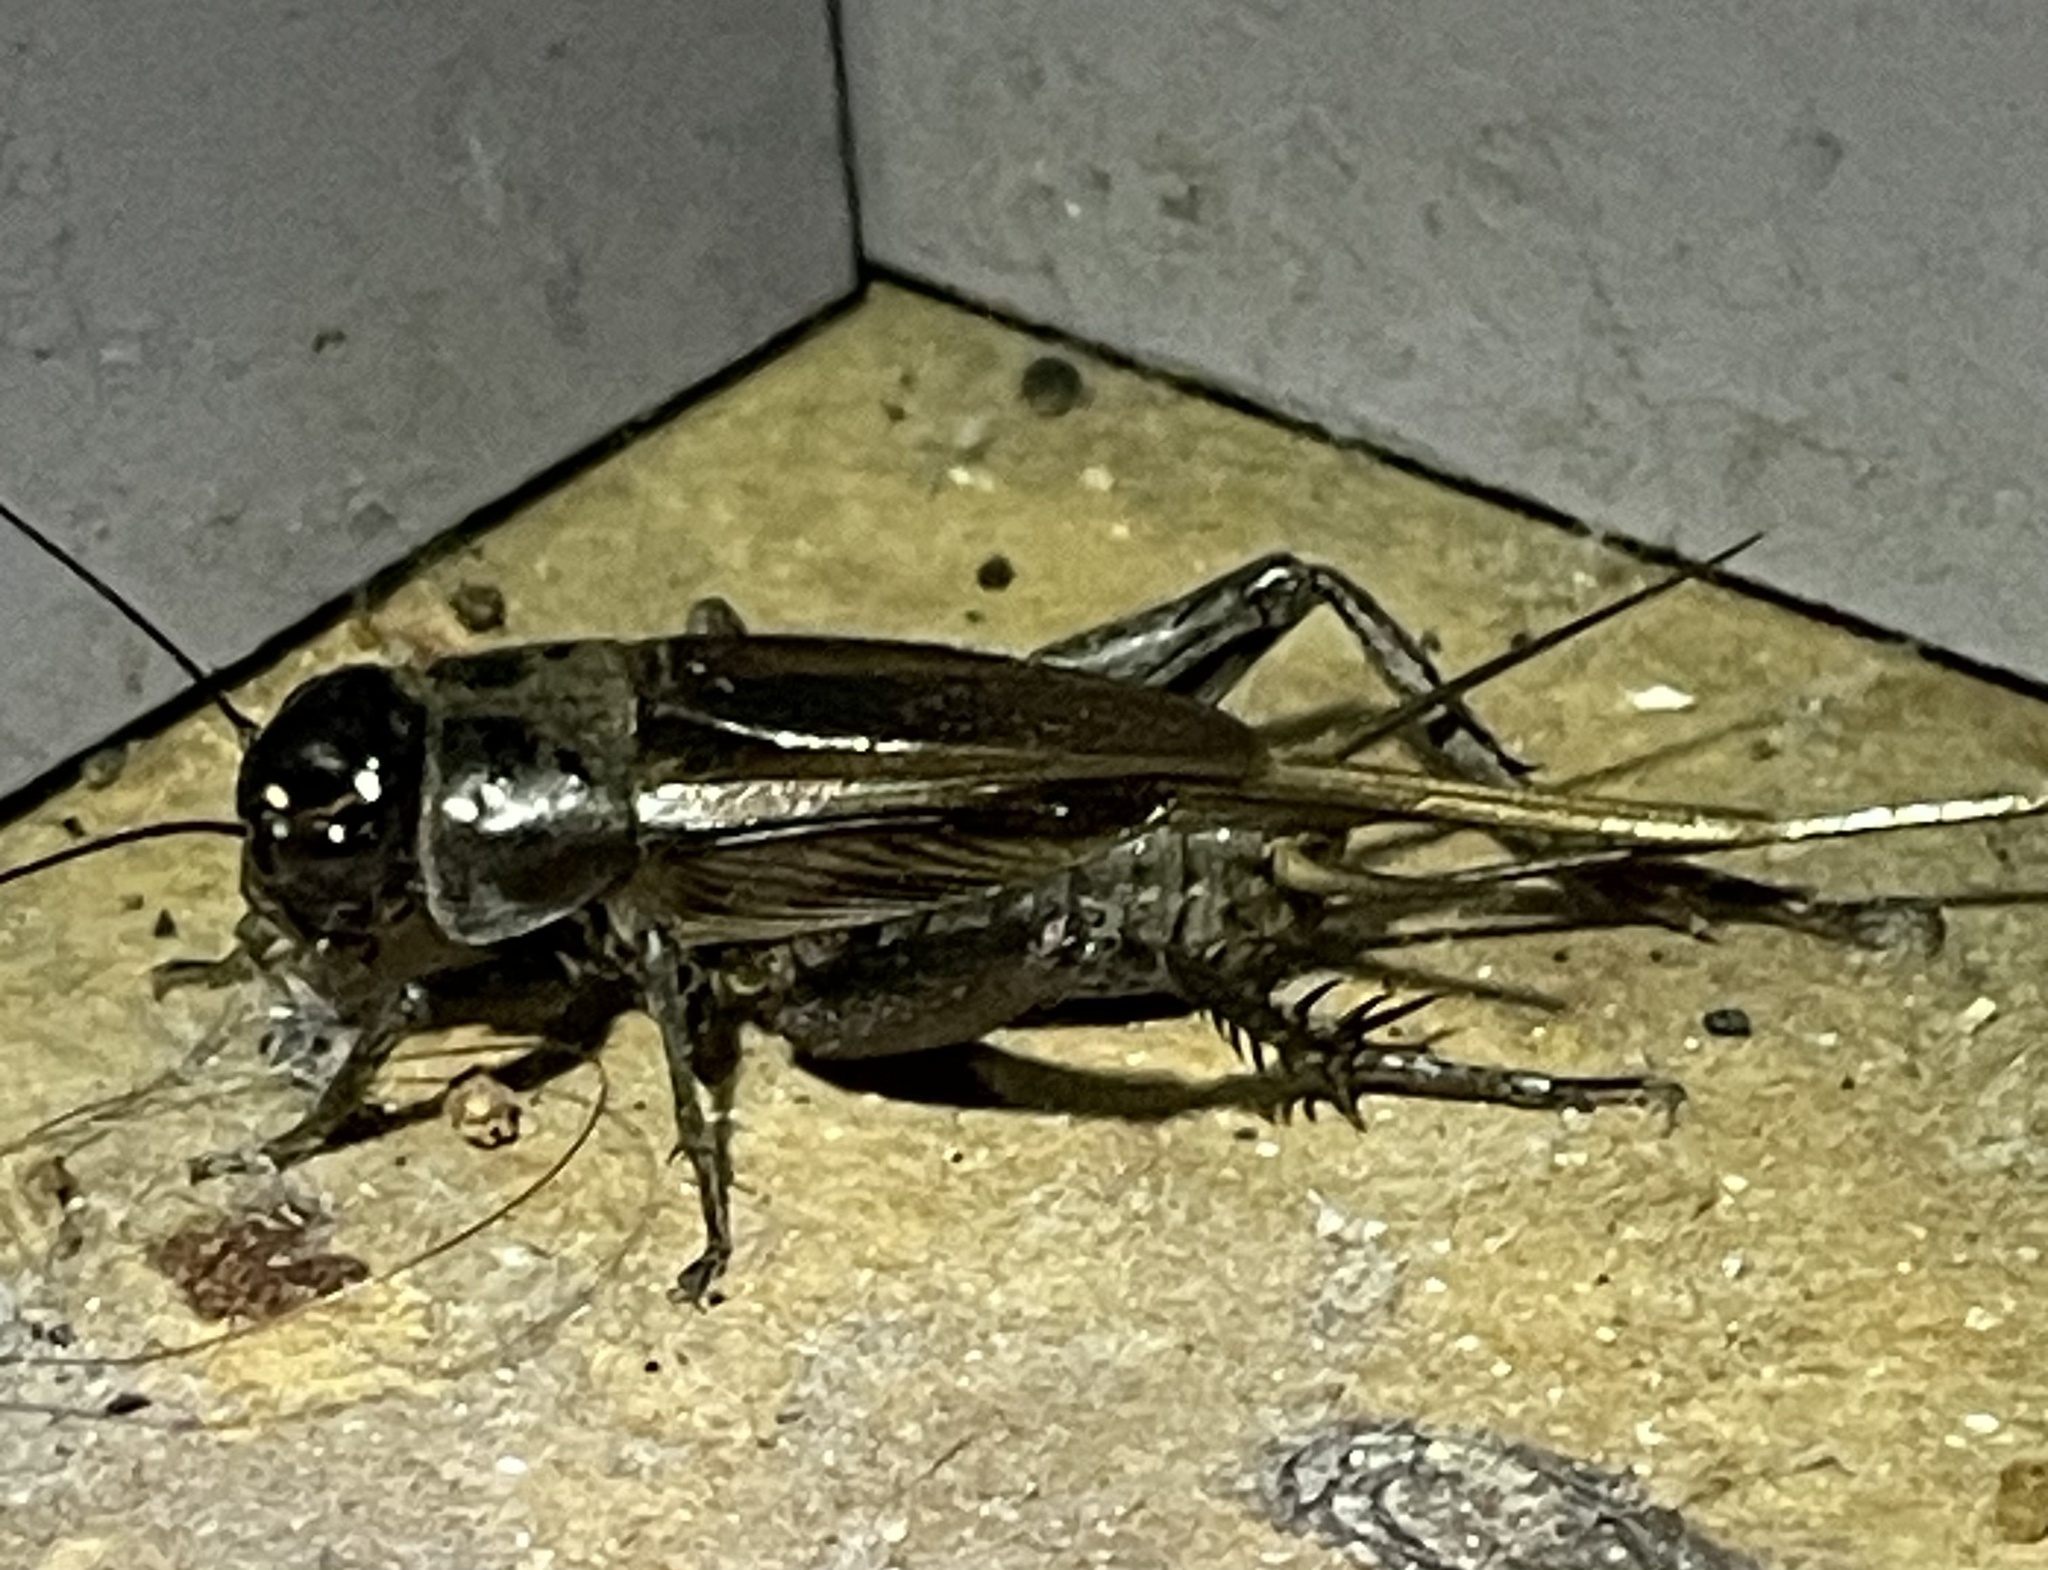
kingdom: Animalia
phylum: Arthropoda
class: Insecta
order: Orthoptera
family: Gryllidae
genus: Teleogryllus
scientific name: Teleogryllus commodus
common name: Black field cricket
